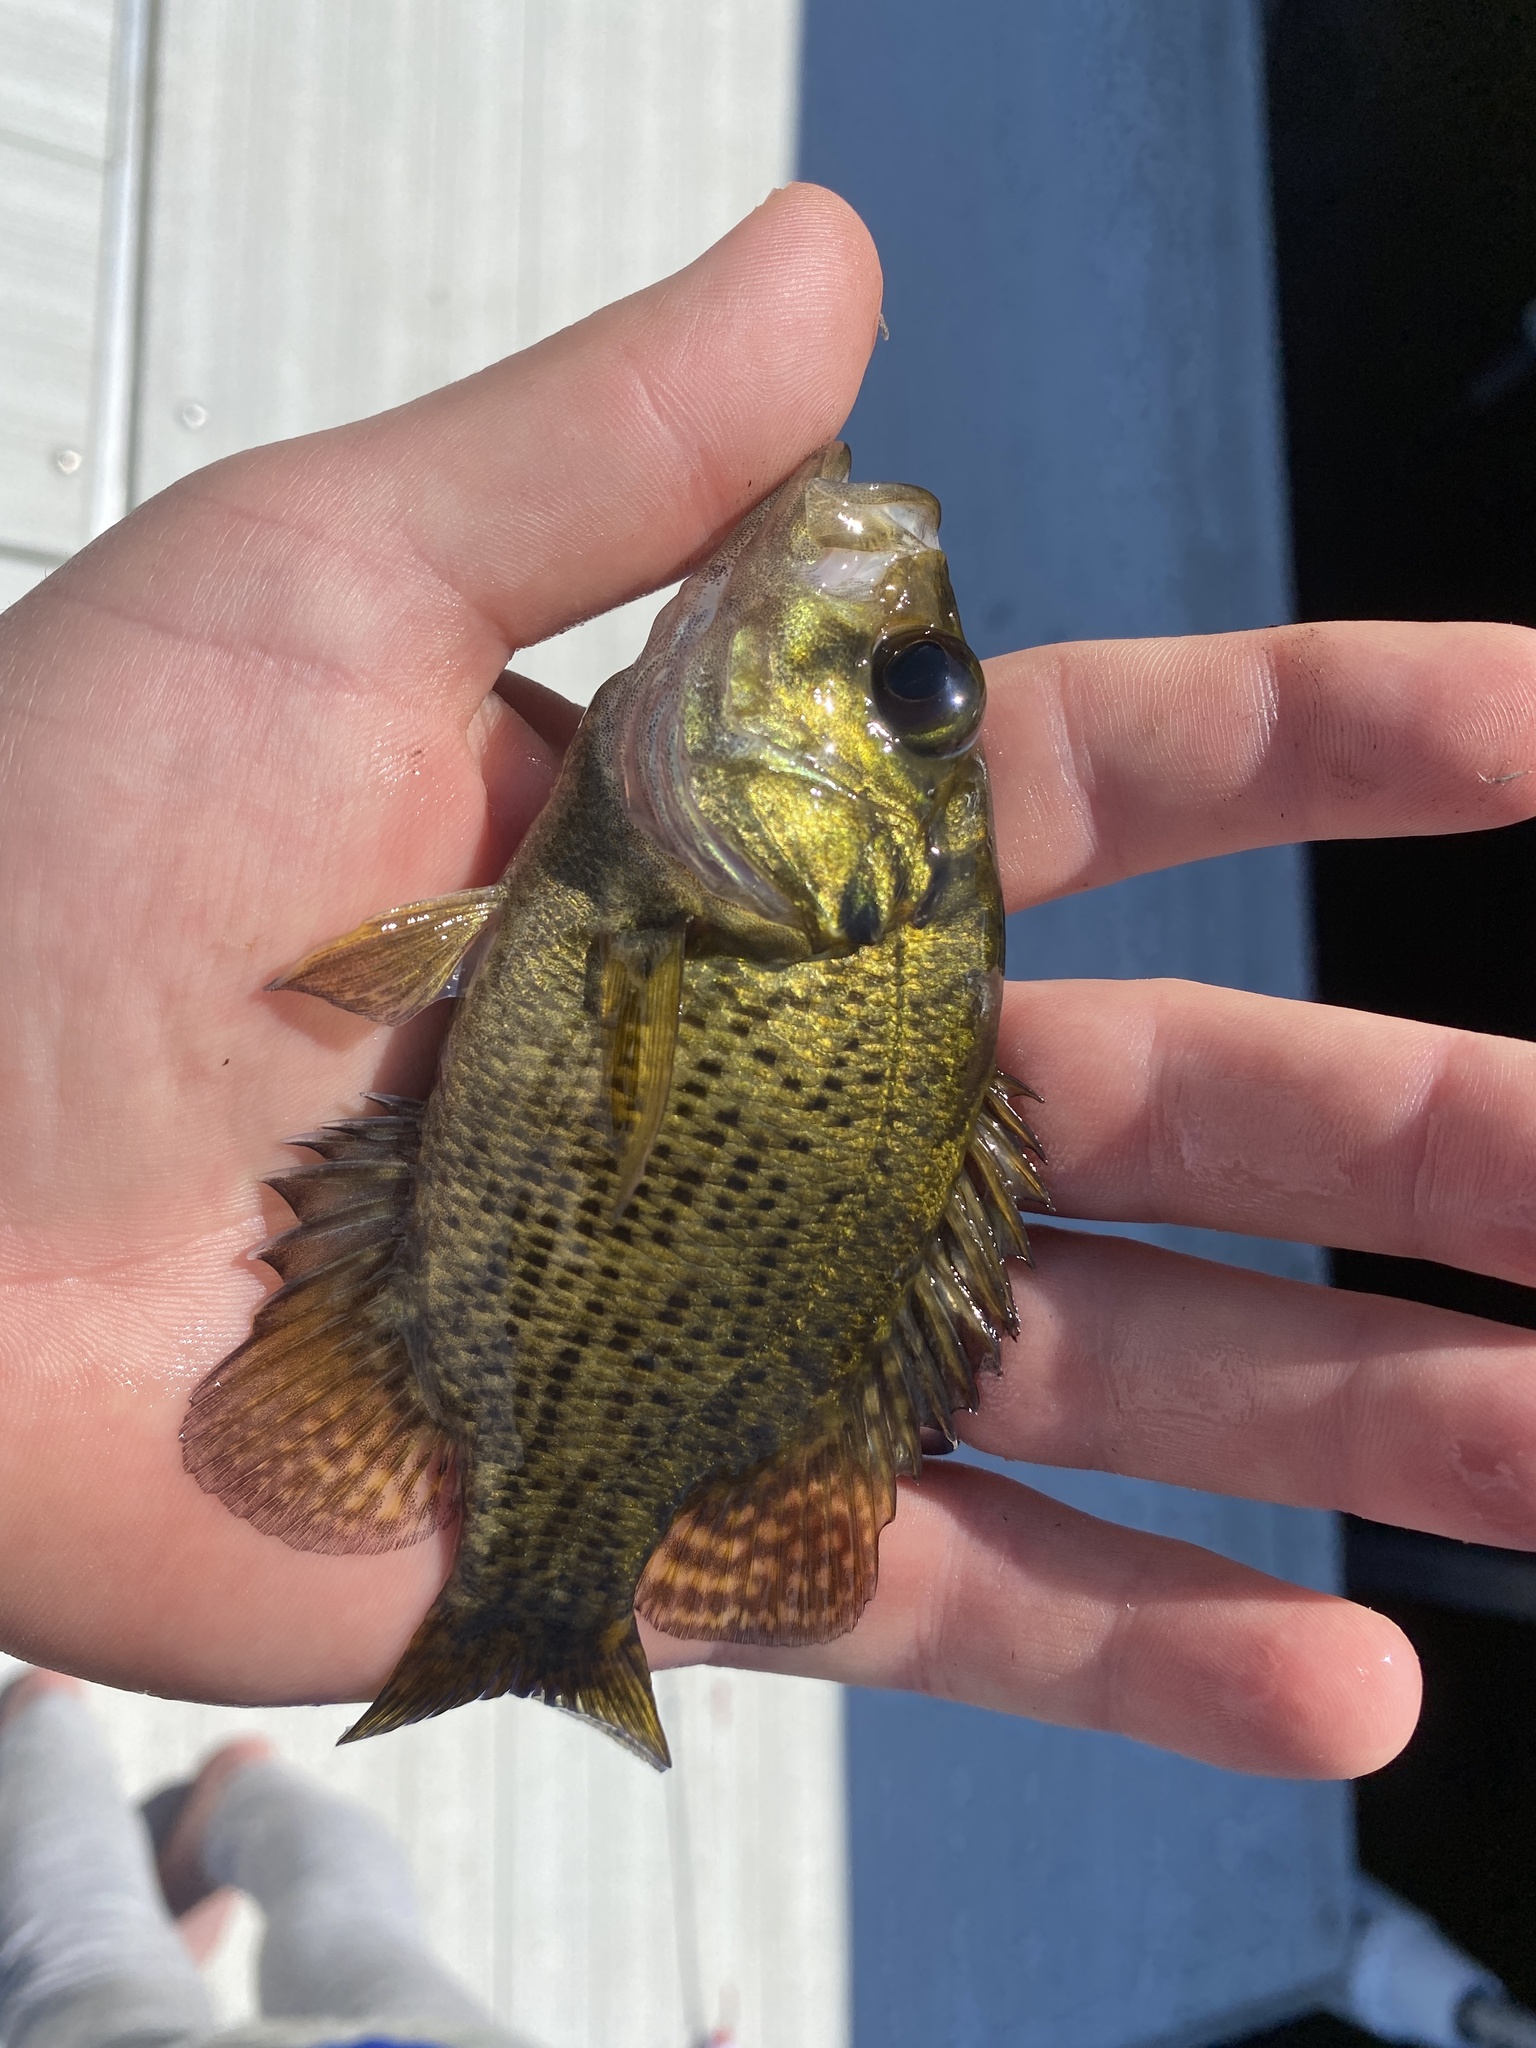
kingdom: Animalia
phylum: Chordata
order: Perciformes
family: Centrarchidae
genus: Ambloplites
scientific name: Ambloplites rupestris
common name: Rock bass
